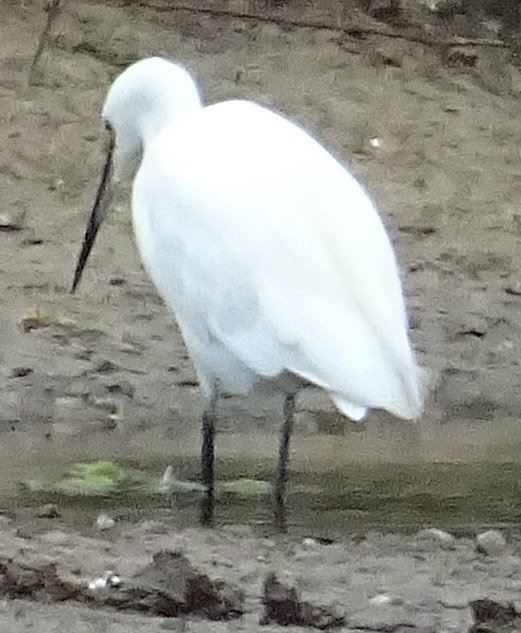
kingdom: Animalia
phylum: Chordata
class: Aves
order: Pelecaniformes
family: Ardeidae
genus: Egretta
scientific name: Egretta garzetta
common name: Little egret
